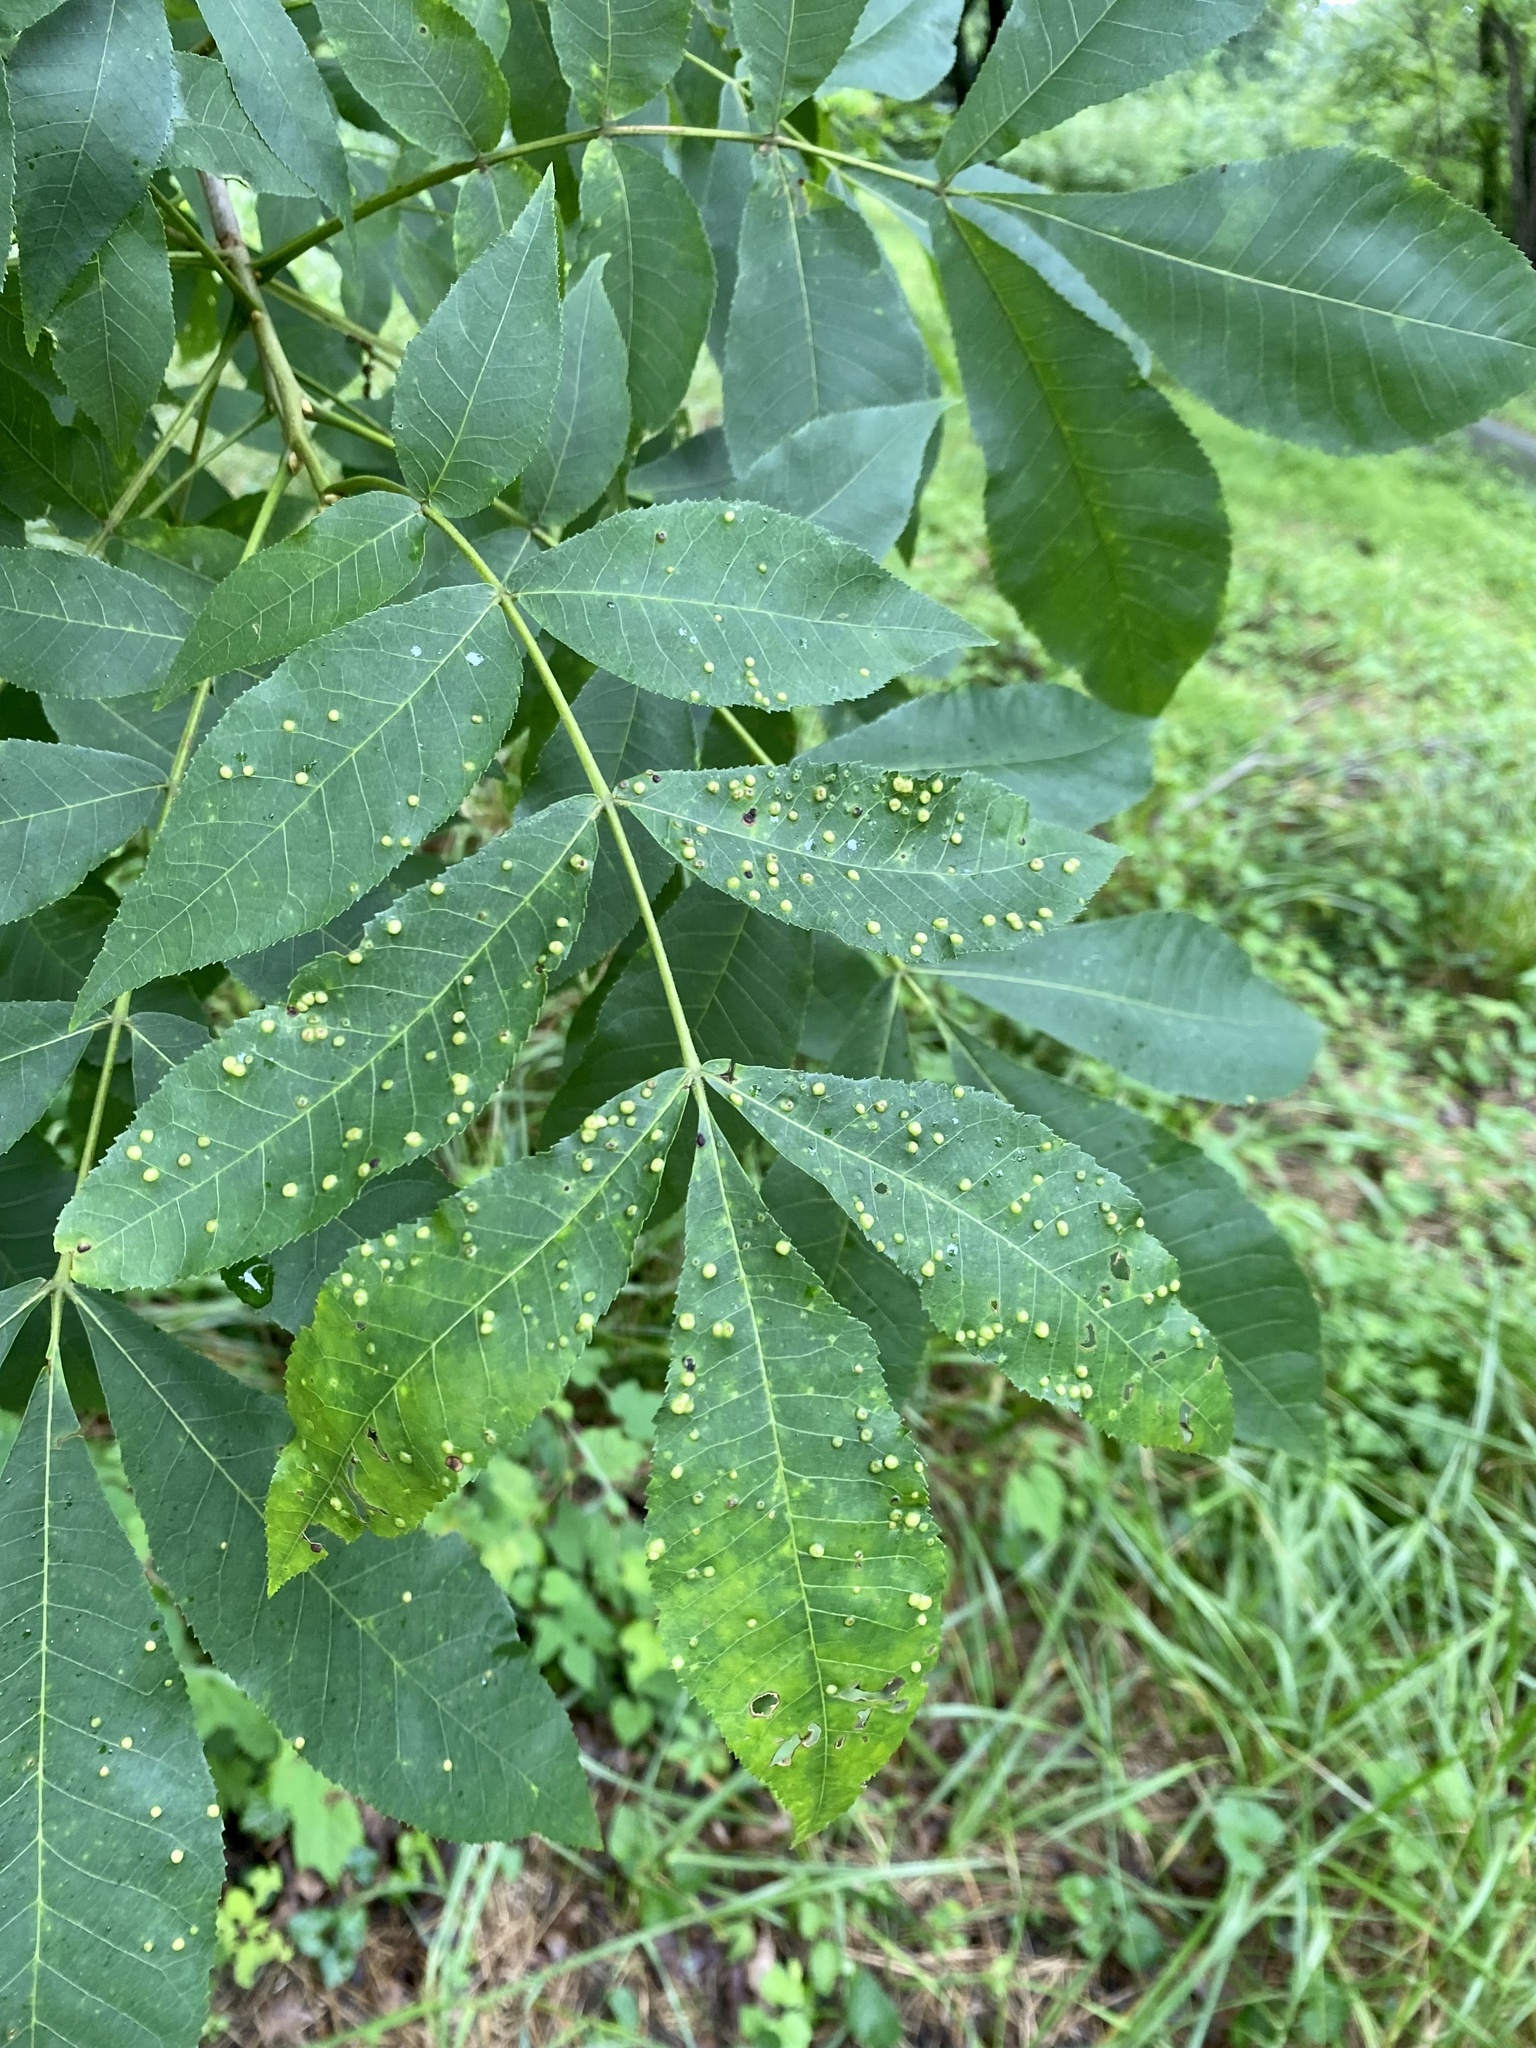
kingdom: Animalia
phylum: Arthropoda
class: Insecta
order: Hemiptera
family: Phylloxeridae
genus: Phylloxera
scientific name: Phylloxera caryae-semen
